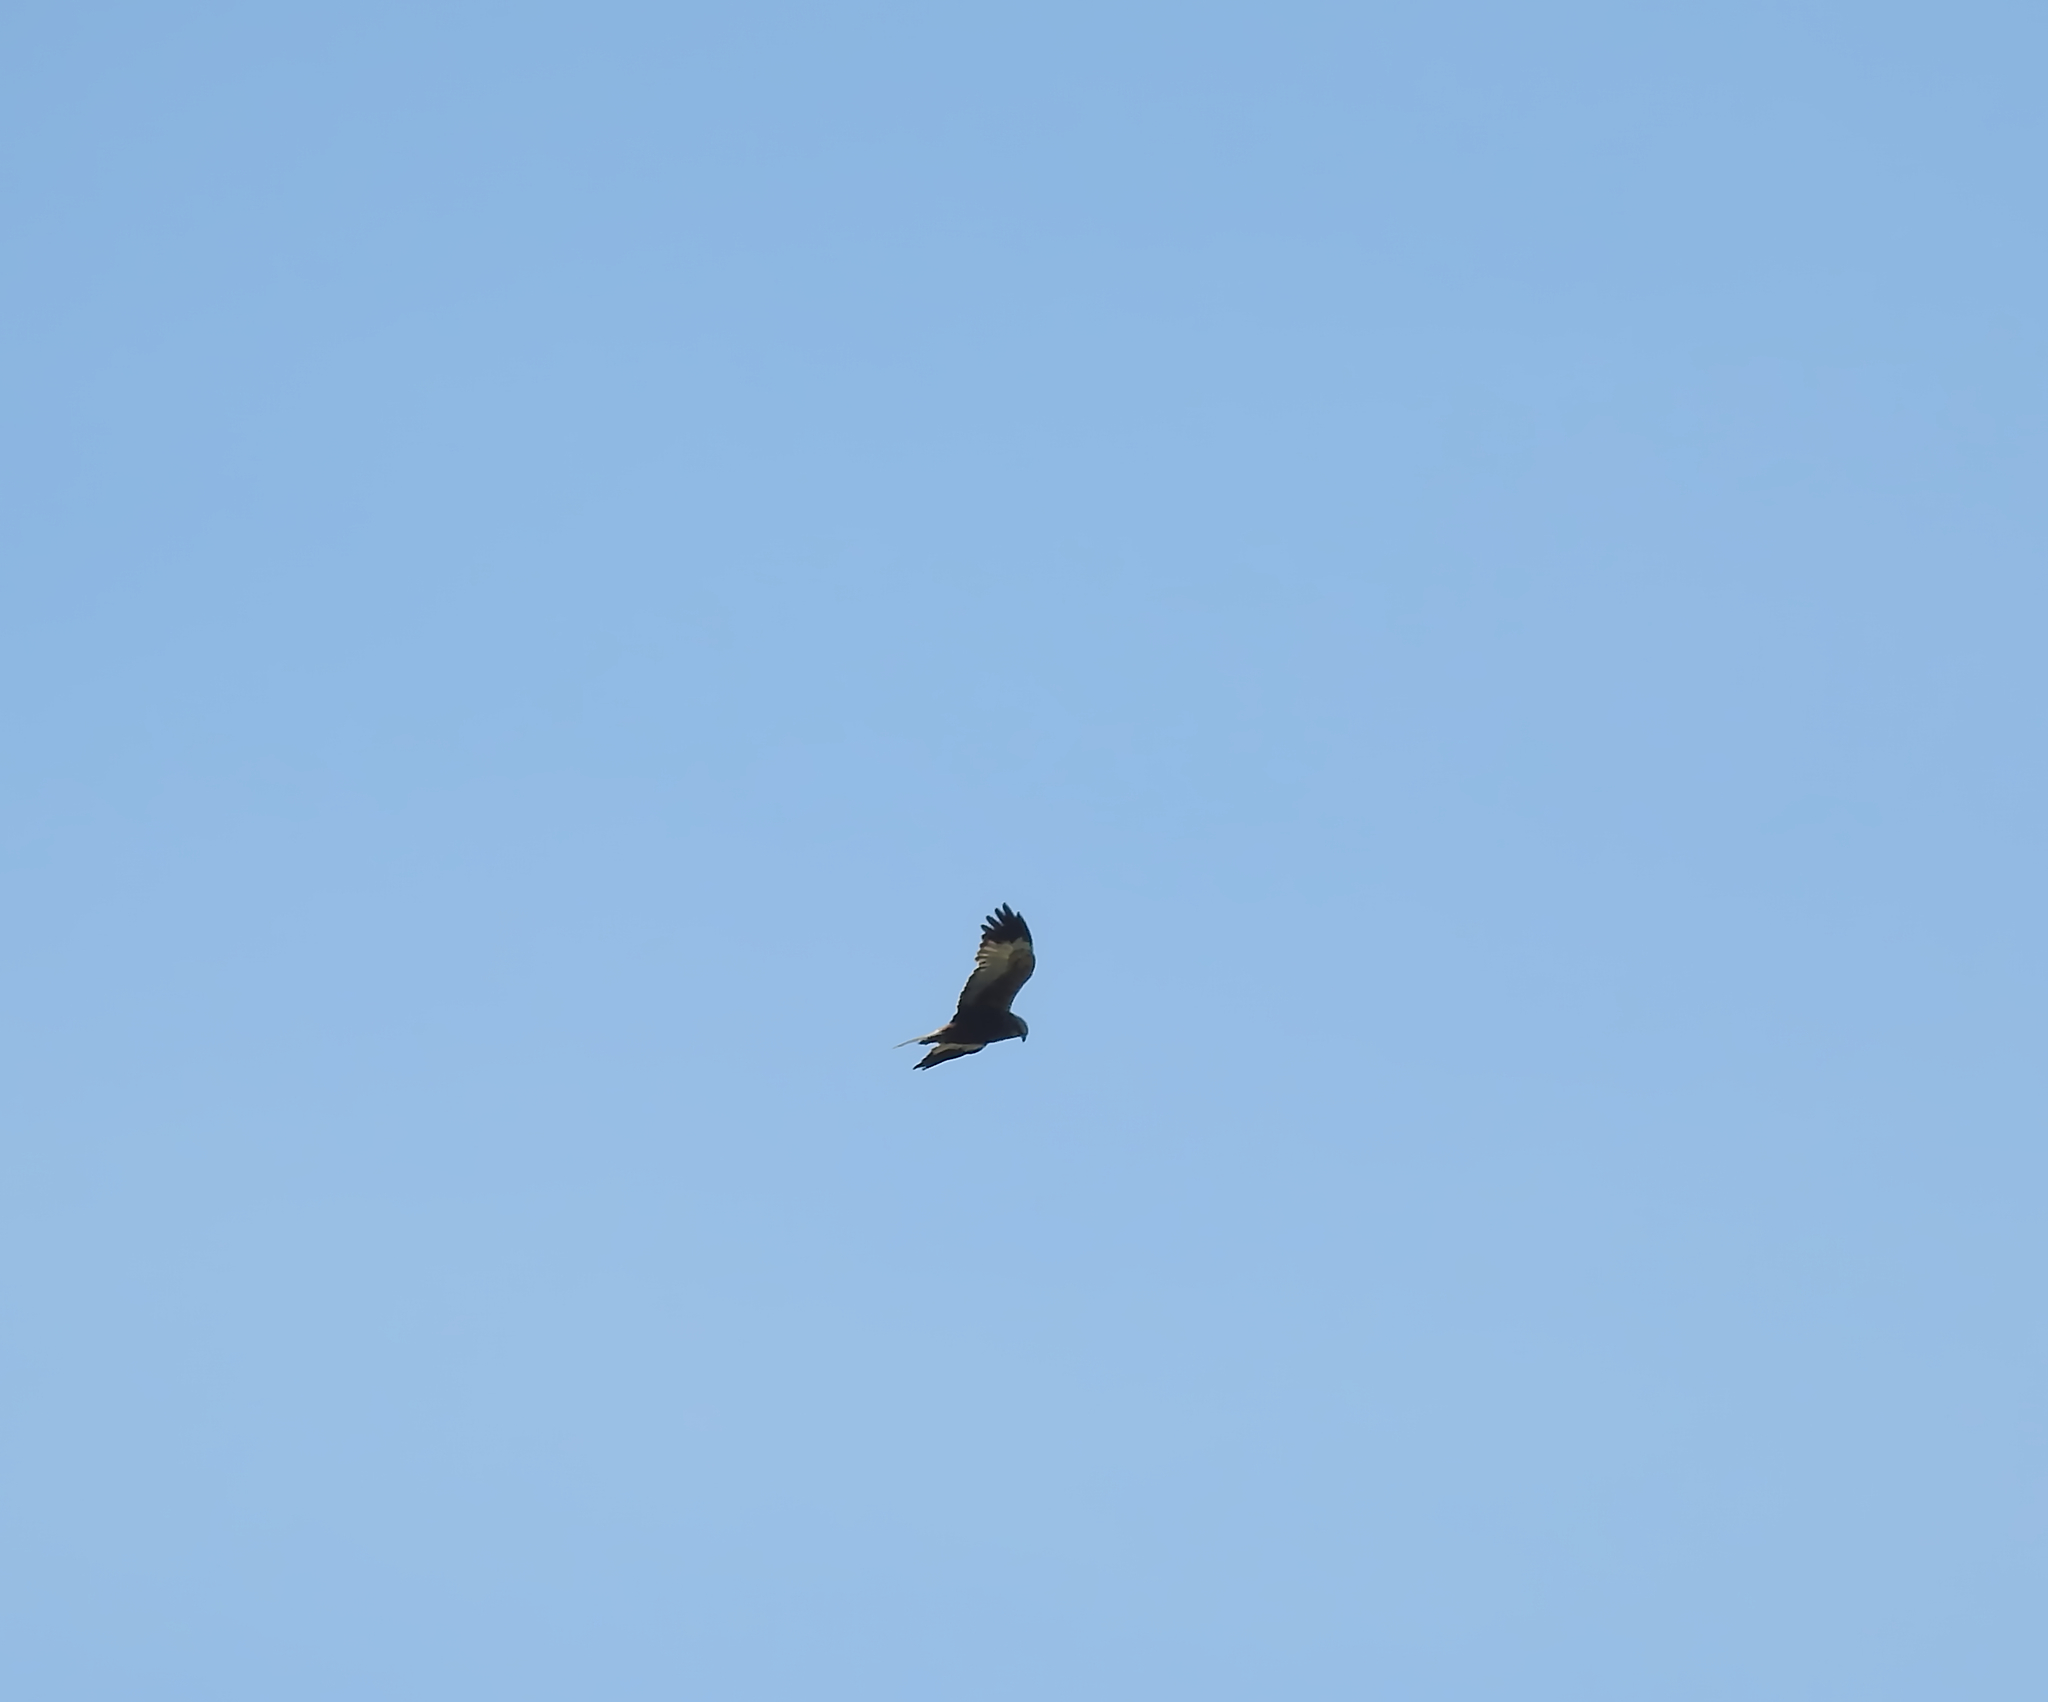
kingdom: Animalia
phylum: Chordata
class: Aves
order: Accipitriformes
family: Accipitridae
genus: Circus
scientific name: Circus aeruginosus
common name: Western marsh harrier
